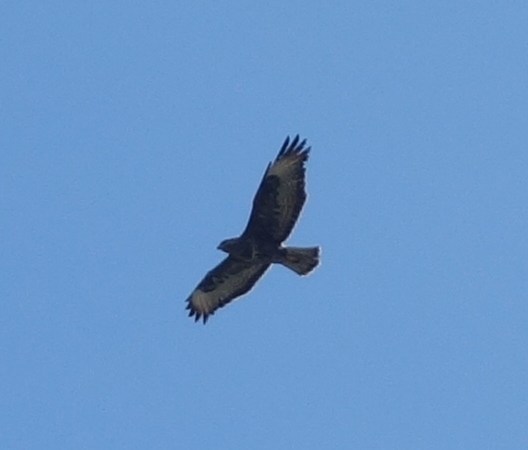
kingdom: Animalia
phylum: Chordata
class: Aves
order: Accipitriformes
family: Accipitridae
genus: Buteo
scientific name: Buteo buteo
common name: Common buzzard
